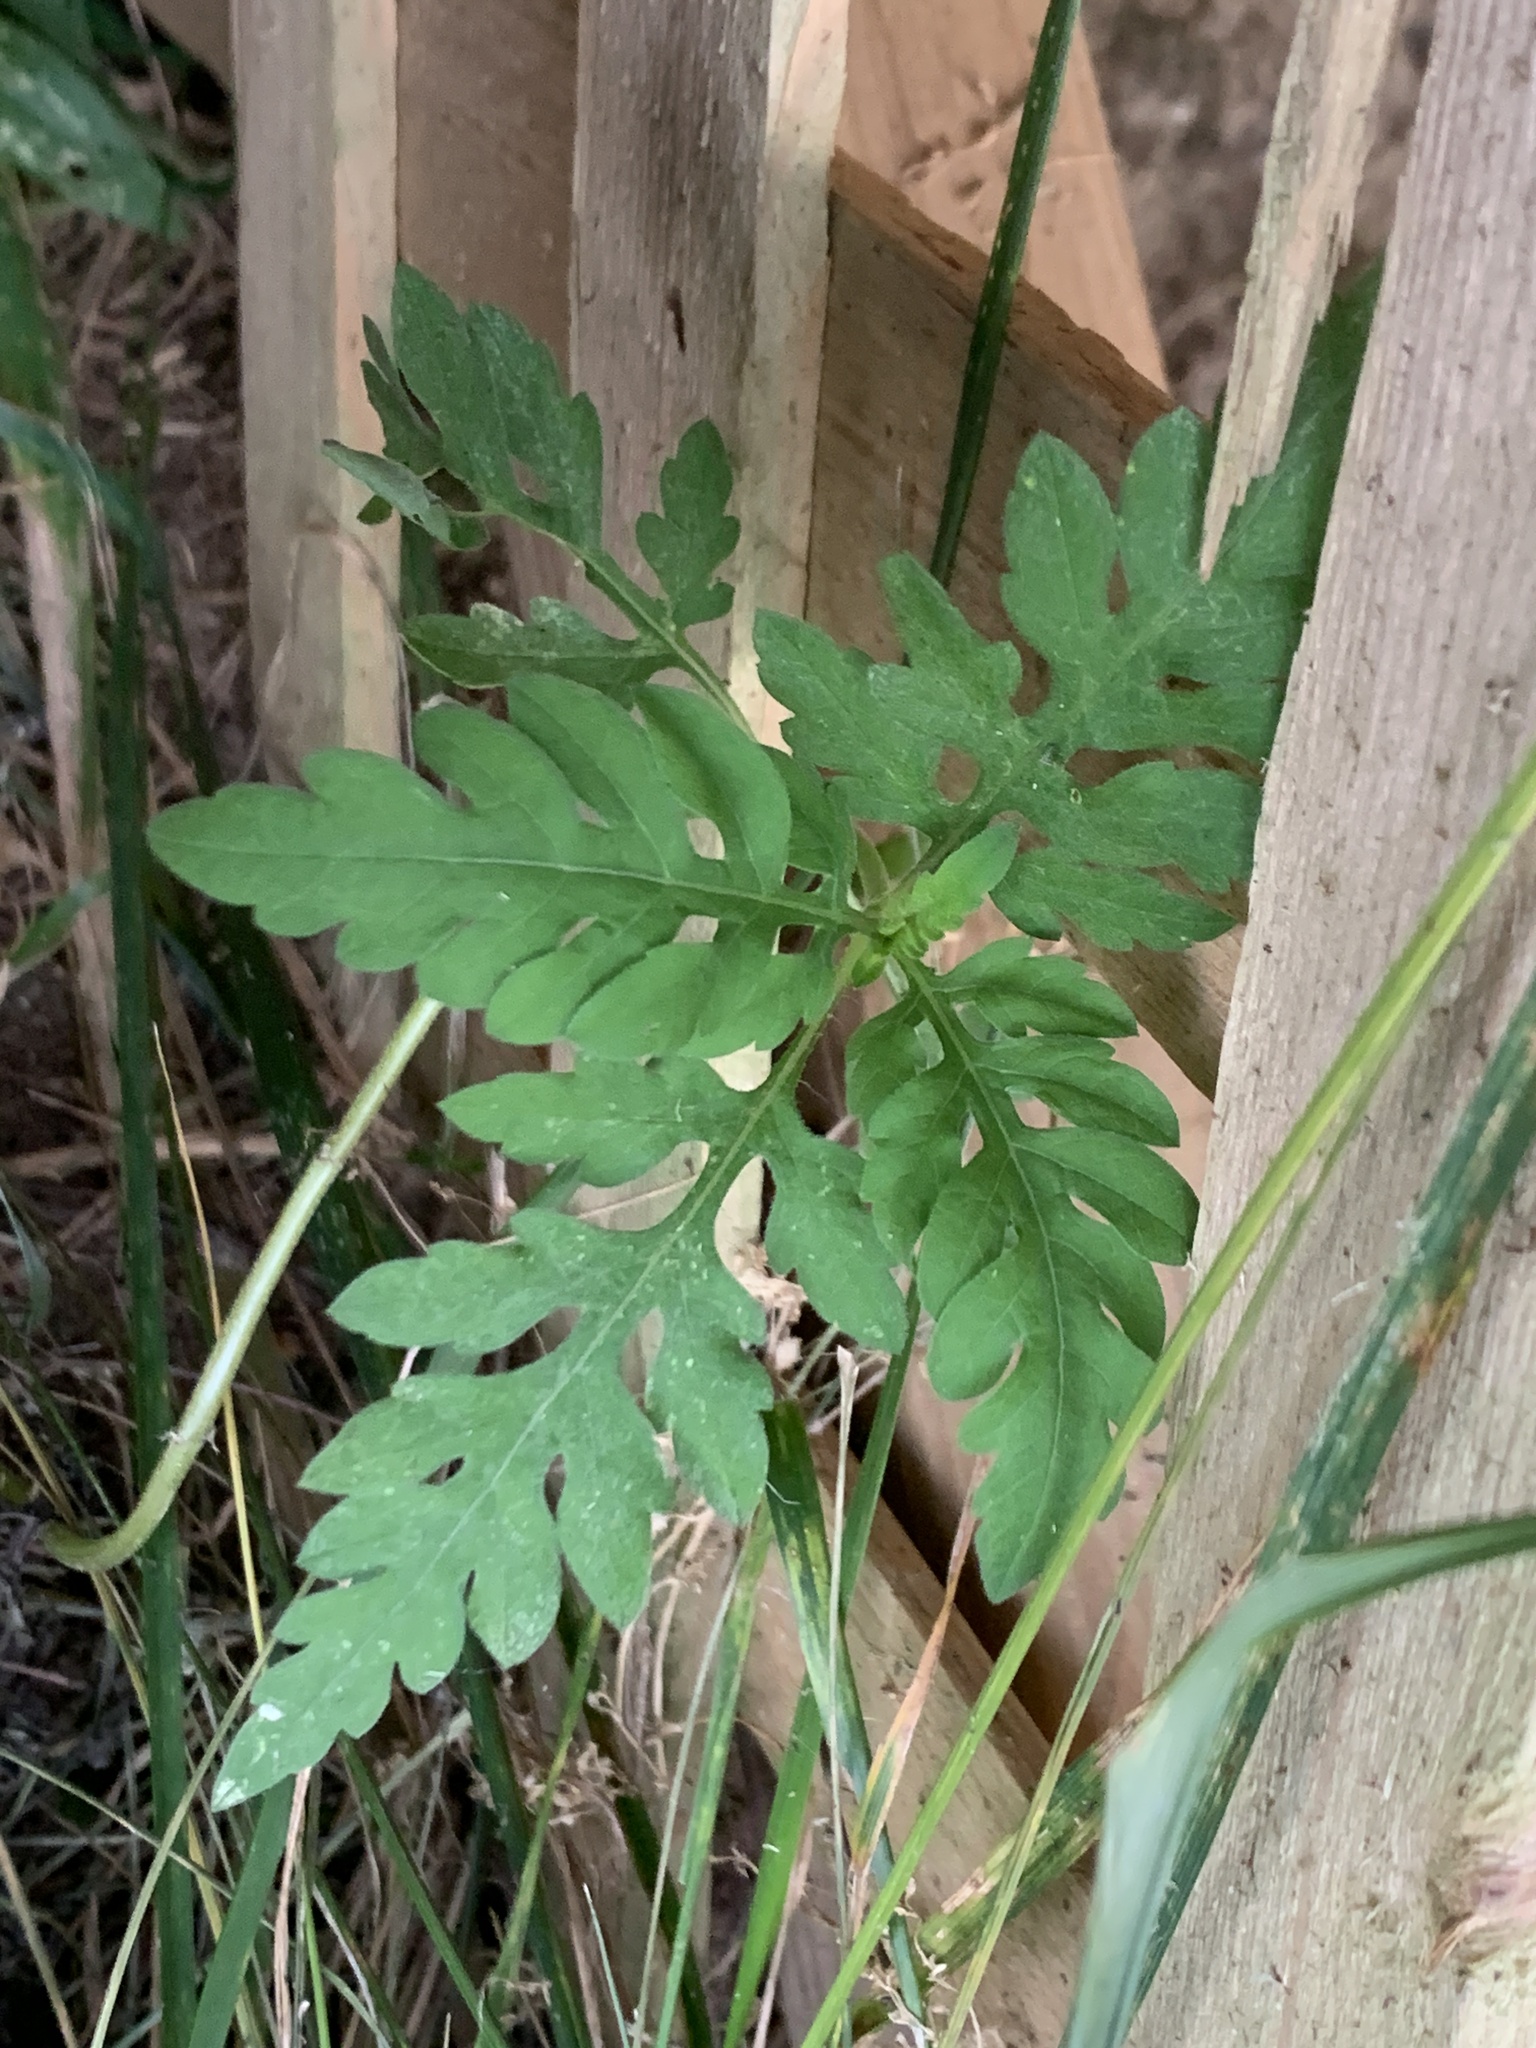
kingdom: Plantae
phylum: Tracheophyta
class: Magnoliopsida
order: Asterales
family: Asteraceae
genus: Ambrosia
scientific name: Ambrosia artemisiifolia
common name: Annual ragweed
